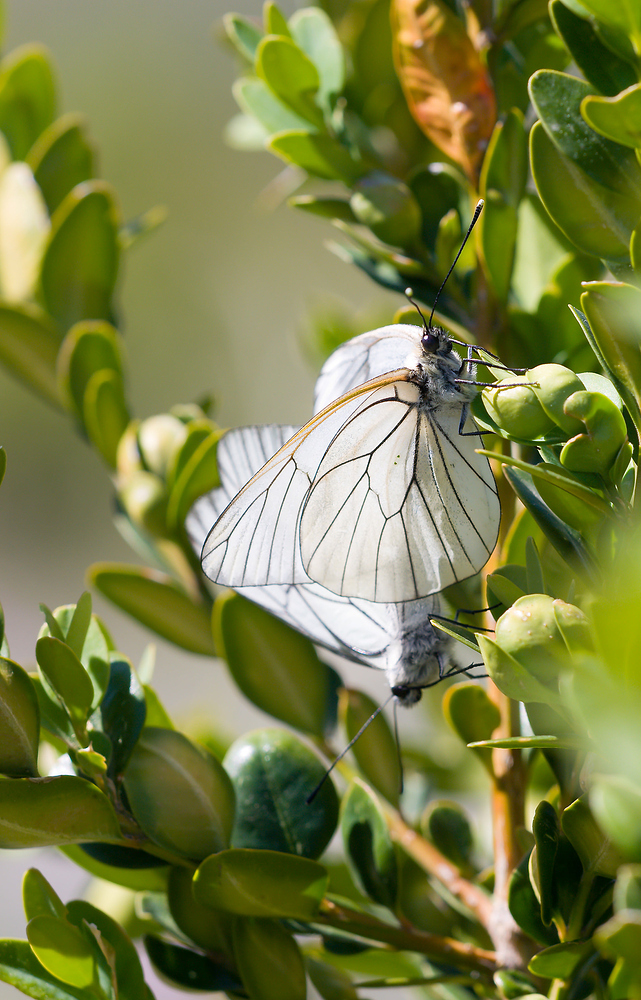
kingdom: Animalia
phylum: Arthropoda
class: Insecta
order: Lepidoptera
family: Pieridae
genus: Aporia
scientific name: Aporia crataegi
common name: Black-veined white
